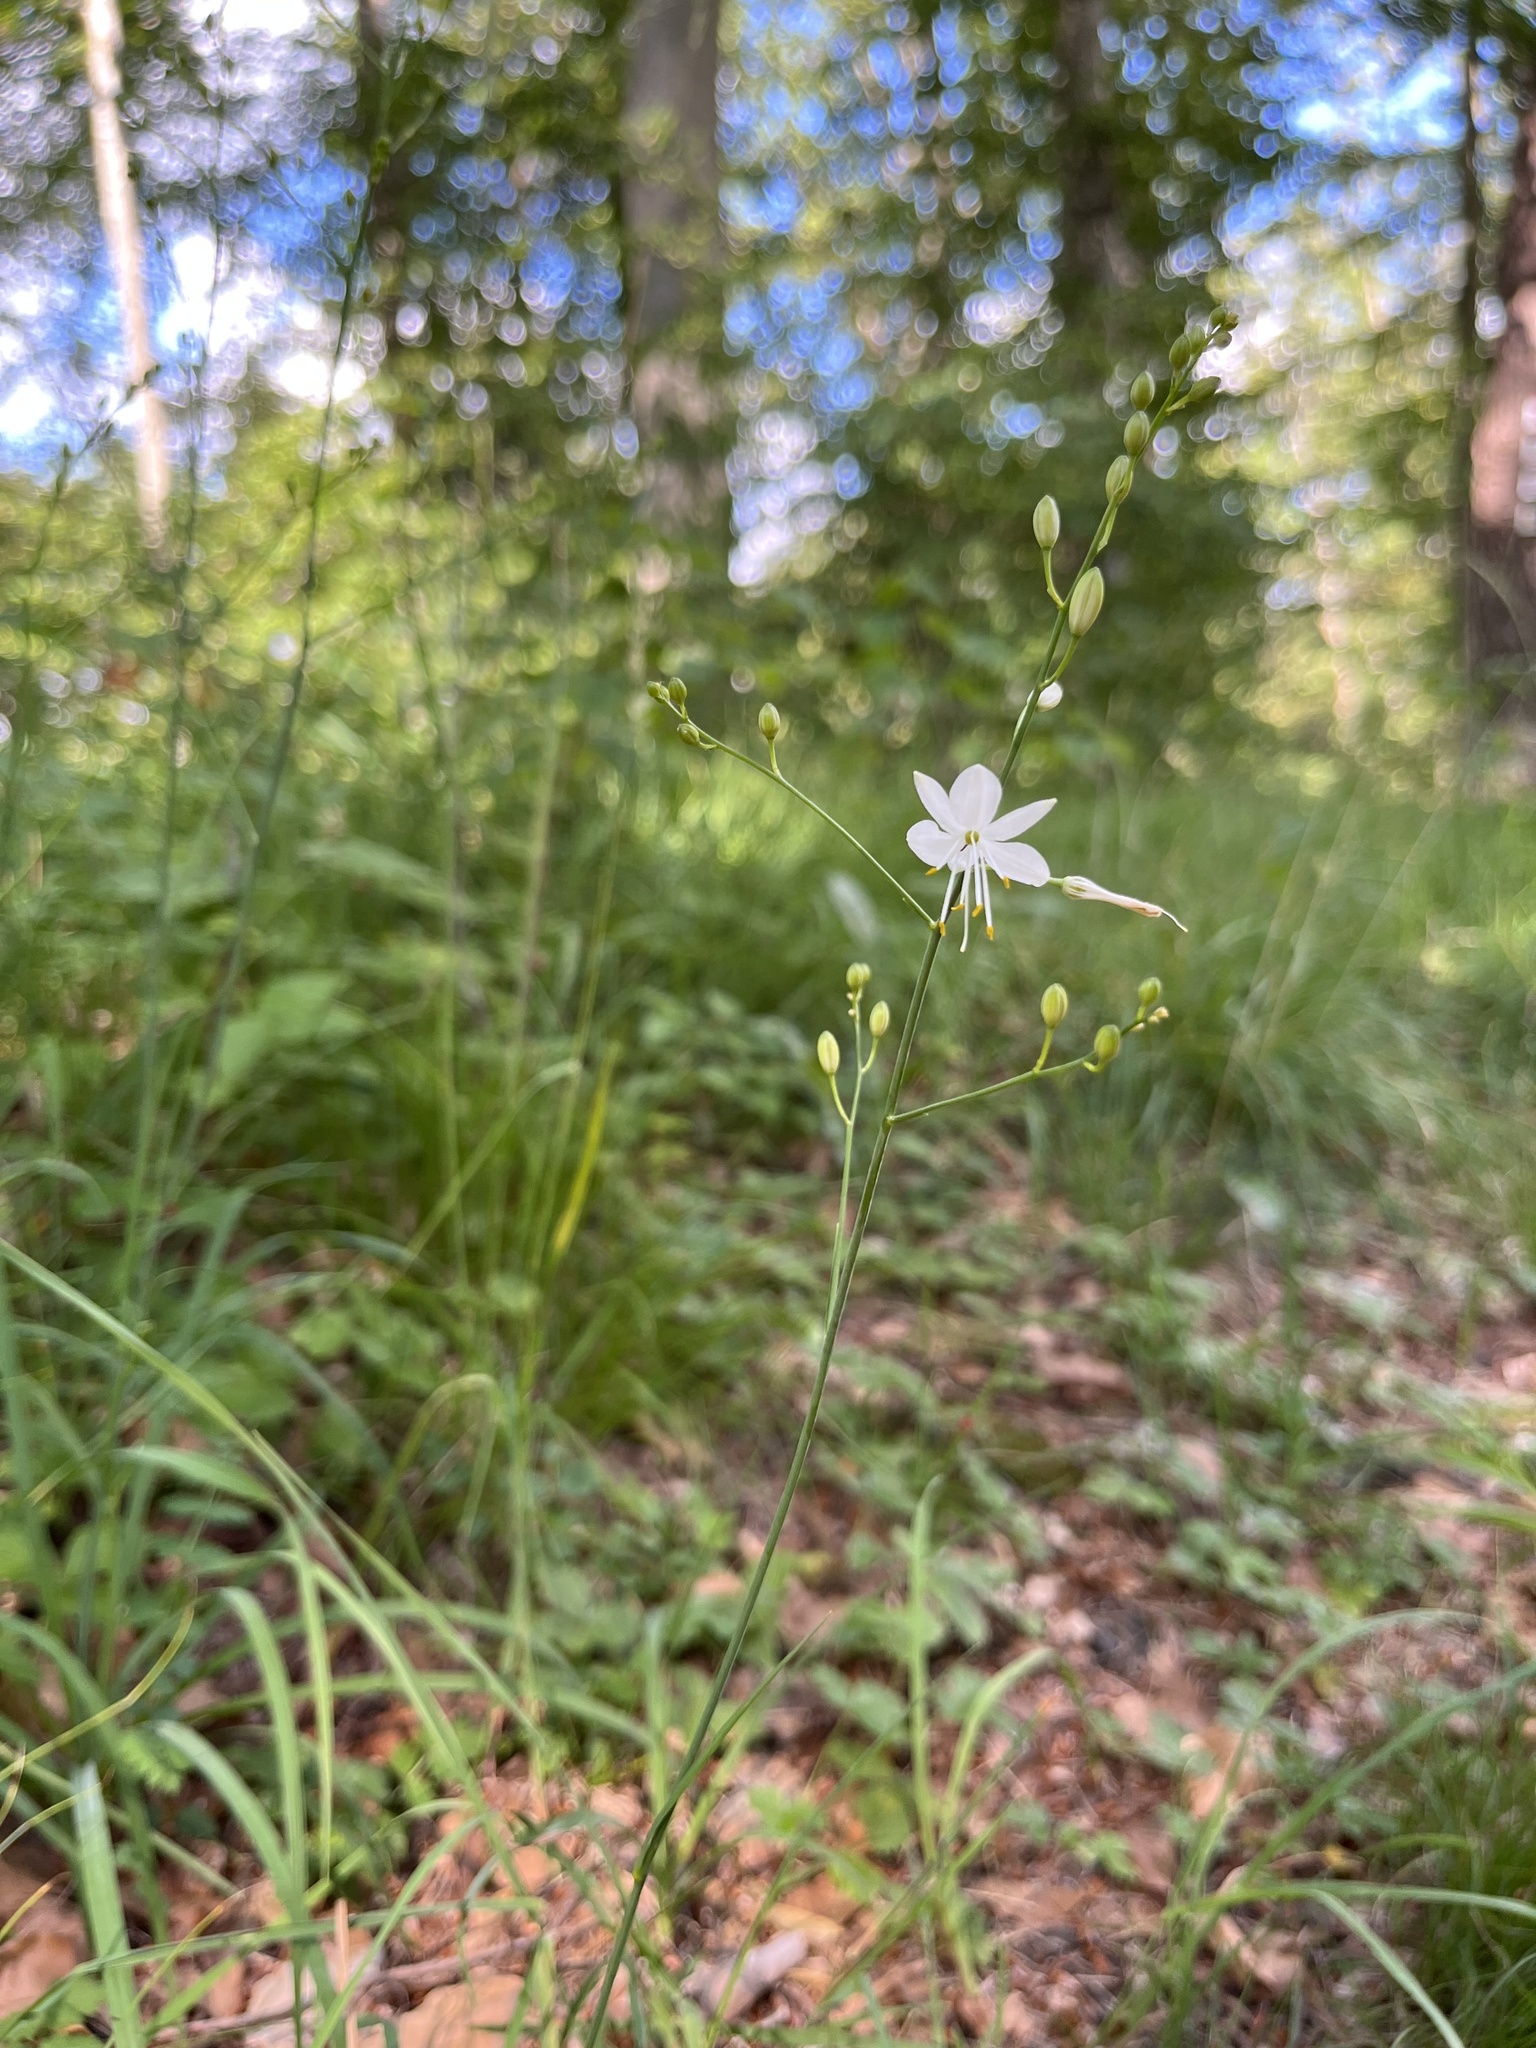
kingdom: Plantae
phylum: Tracheophyta
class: Liliopsida
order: Asparagales
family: Asparagaceae
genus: Anthericum
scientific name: Anthericum ramosum
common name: Branched st. bernard's-lily
